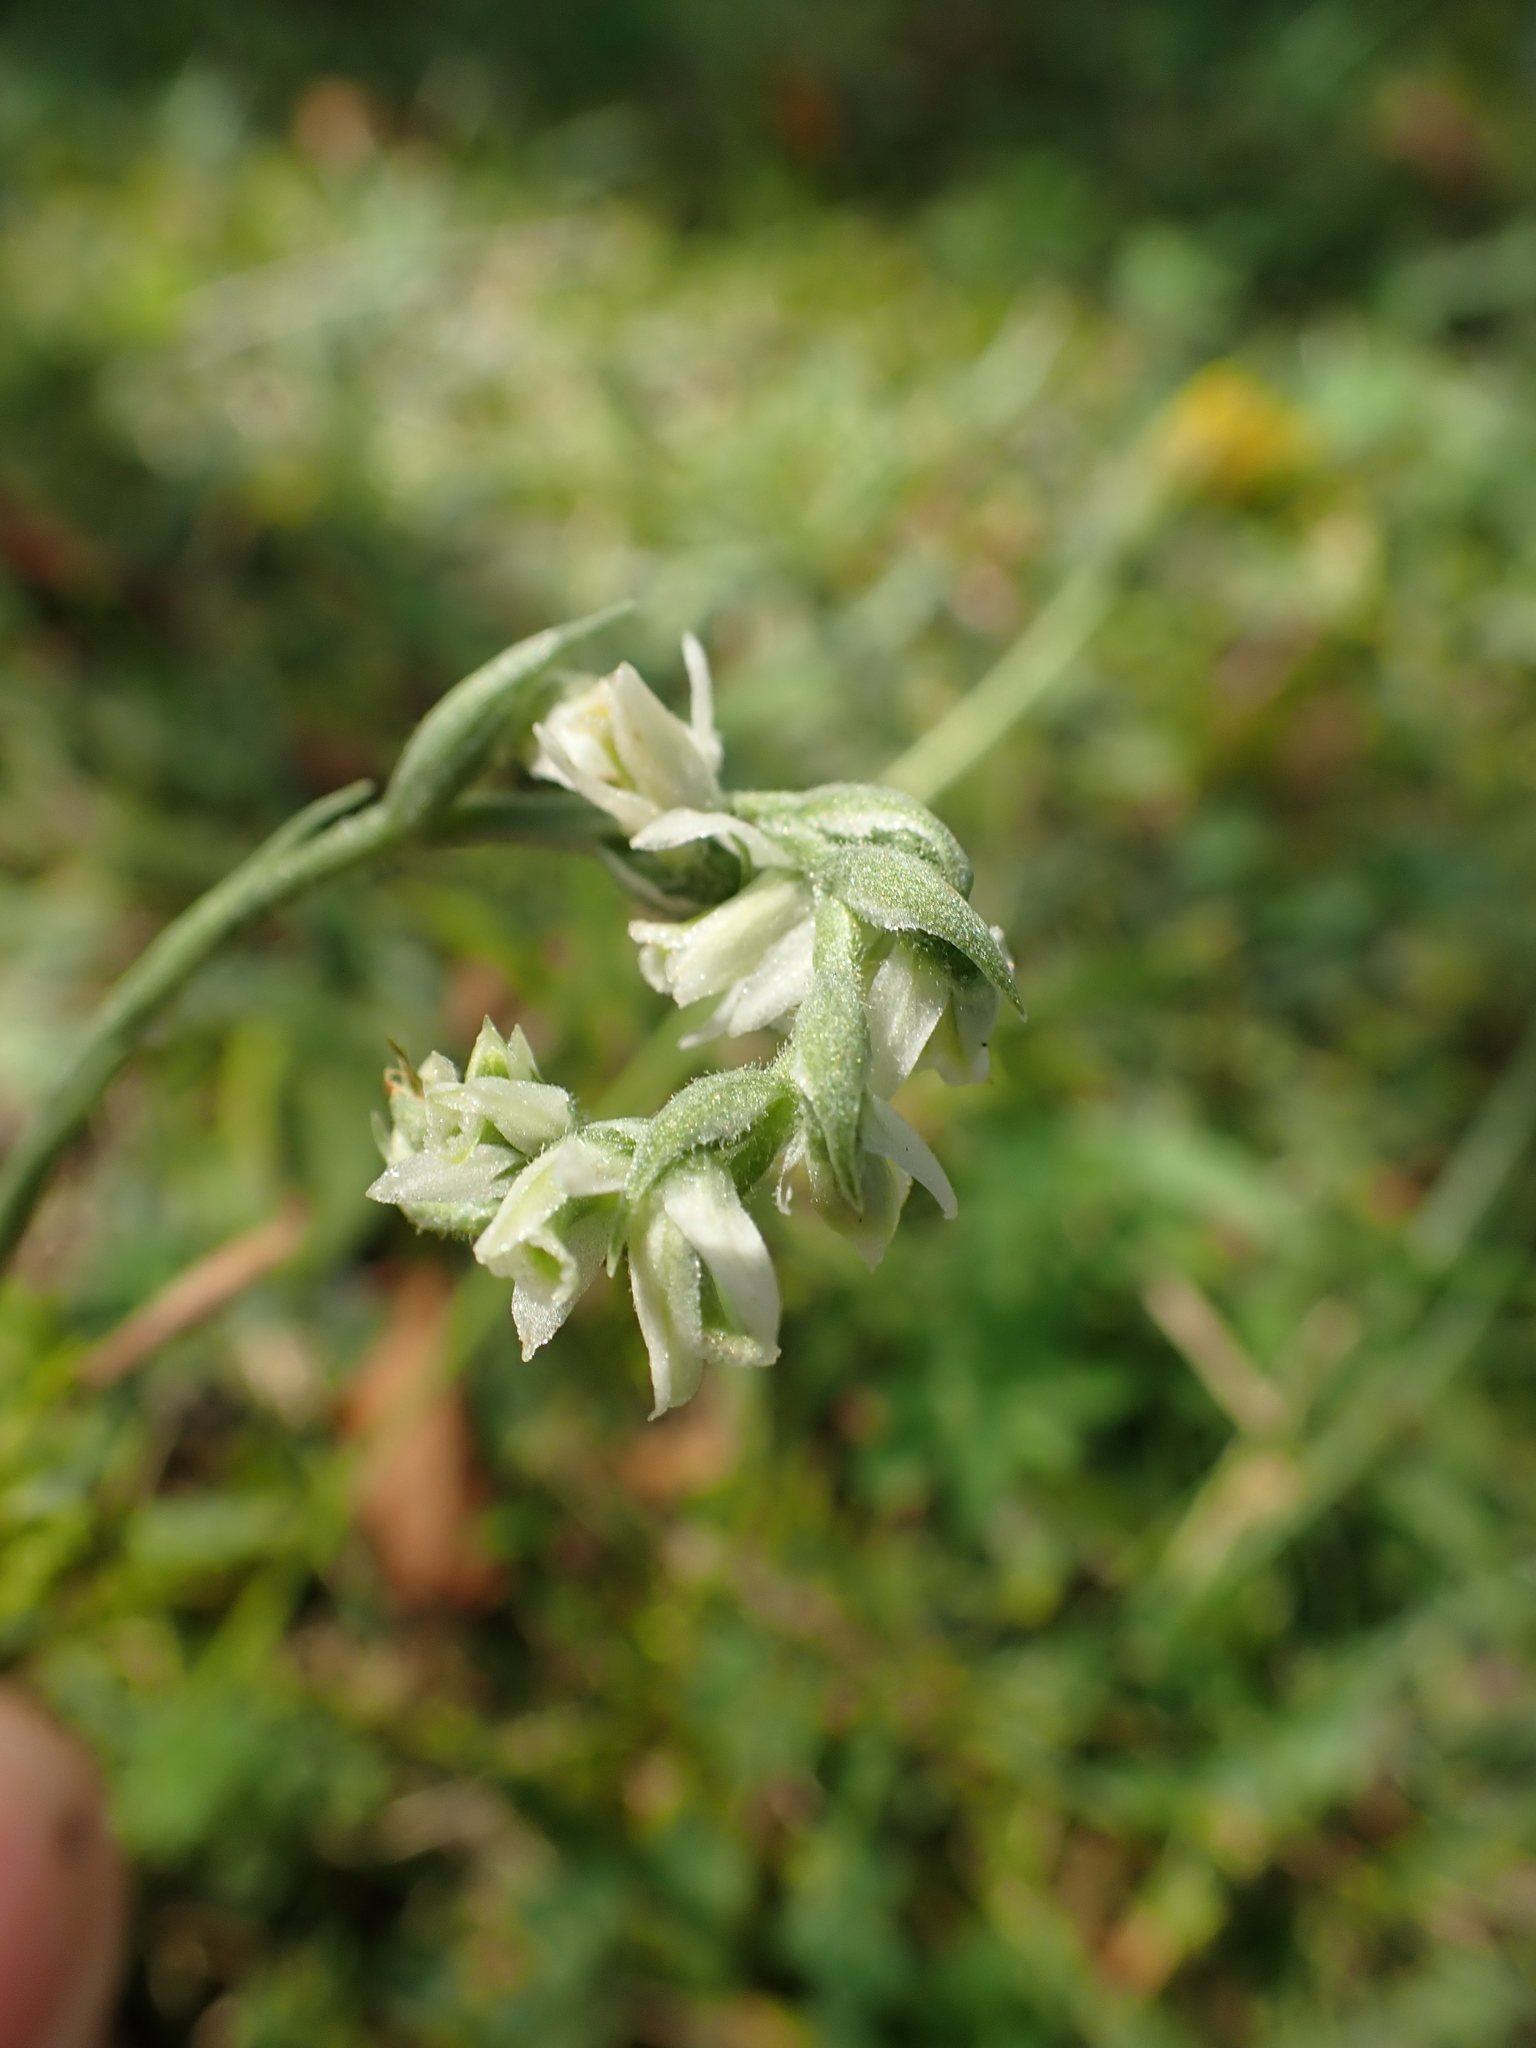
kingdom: Plantae
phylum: Tracheophyta
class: Liliopsida
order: Asparagales
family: Orchidaceae
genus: Spiranthes
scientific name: Spiranthes spiralis
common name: Autumn lady's-tresses
